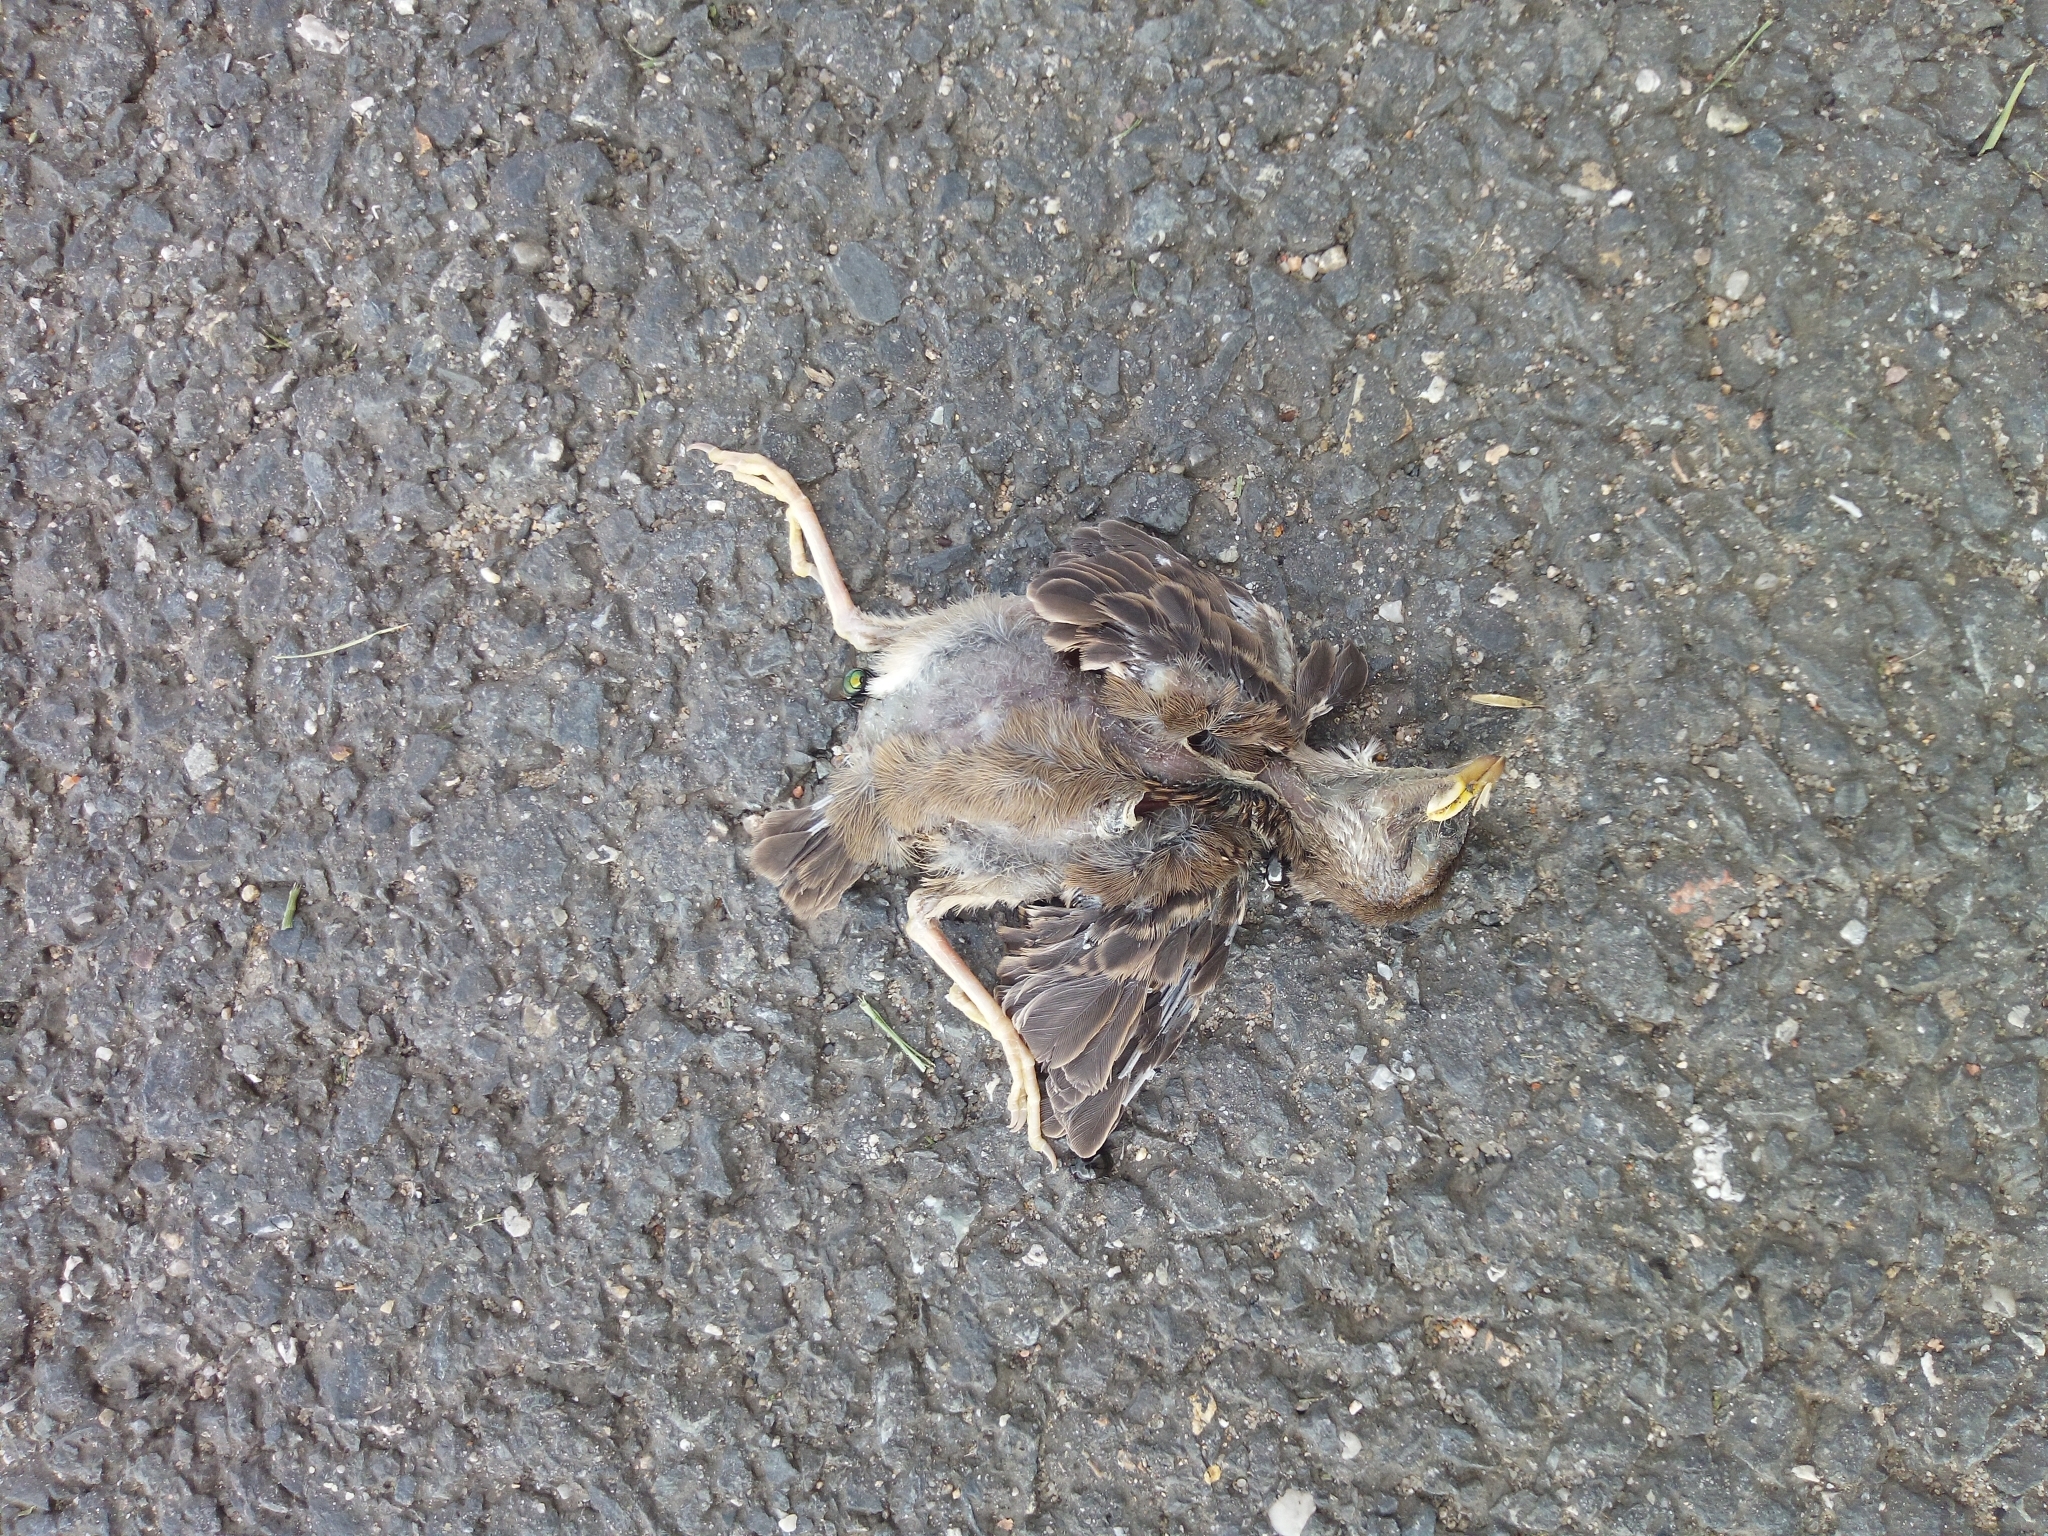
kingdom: Animalia
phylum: Chordata
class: Aves
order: Passeriformes
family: Passeridae
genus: Passer
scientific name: Passer domesticus
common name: House sparrow
